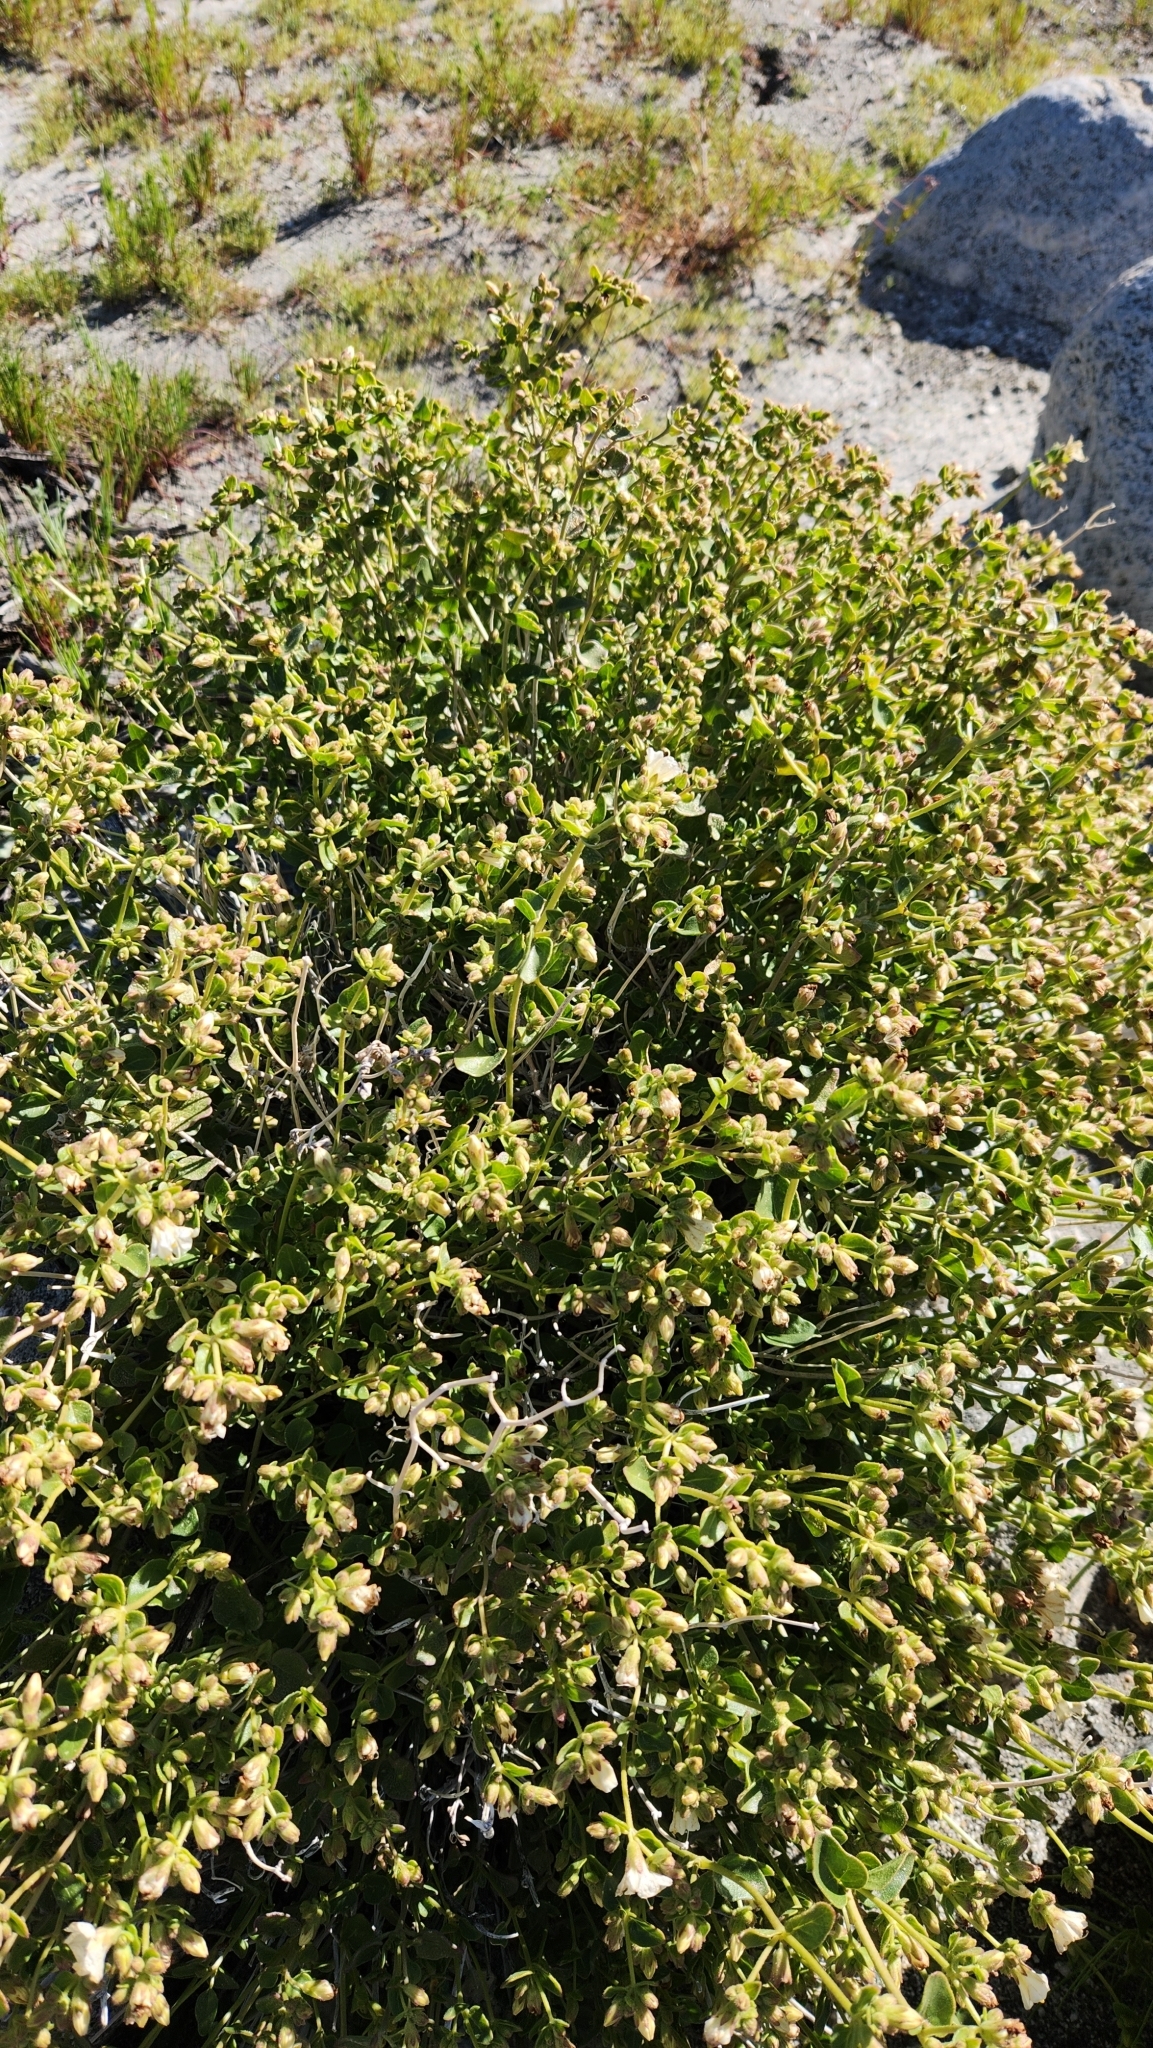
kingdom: Plantae
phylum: Tracheophyta
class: Magnoliopsida
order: Caryophyllales
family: Nyctaginaceae
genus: Mirabilis
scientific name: Mirabilis laevis
